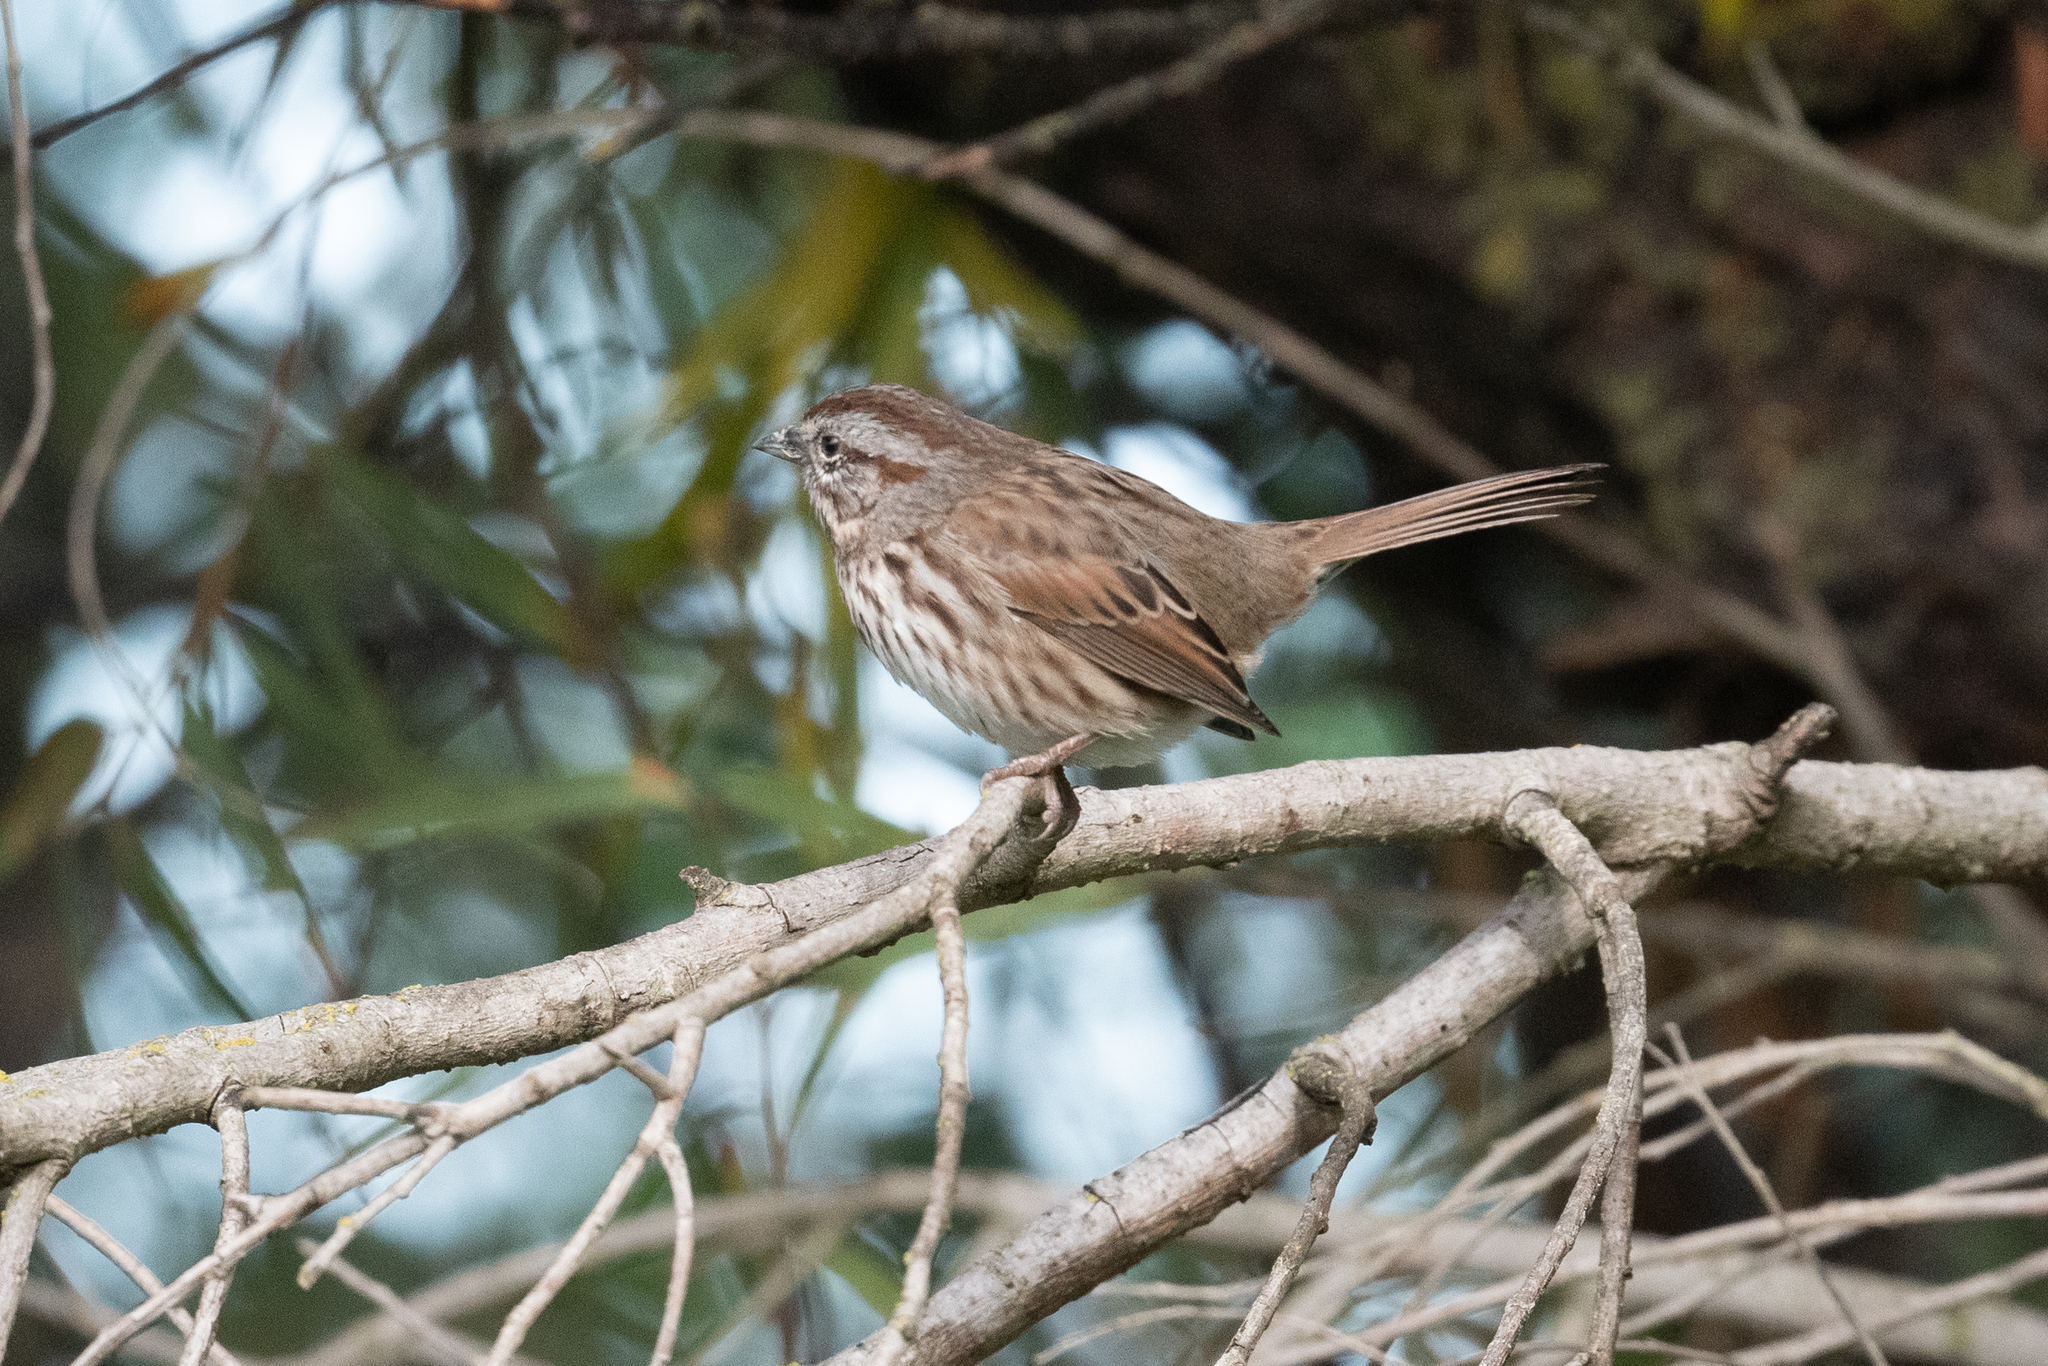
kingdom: Animalia
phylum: Chordata
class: Aves
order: Passeriformes
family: Passerellidae
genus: Melospiza
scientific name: Melospiza melodia
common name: Song sparrow
